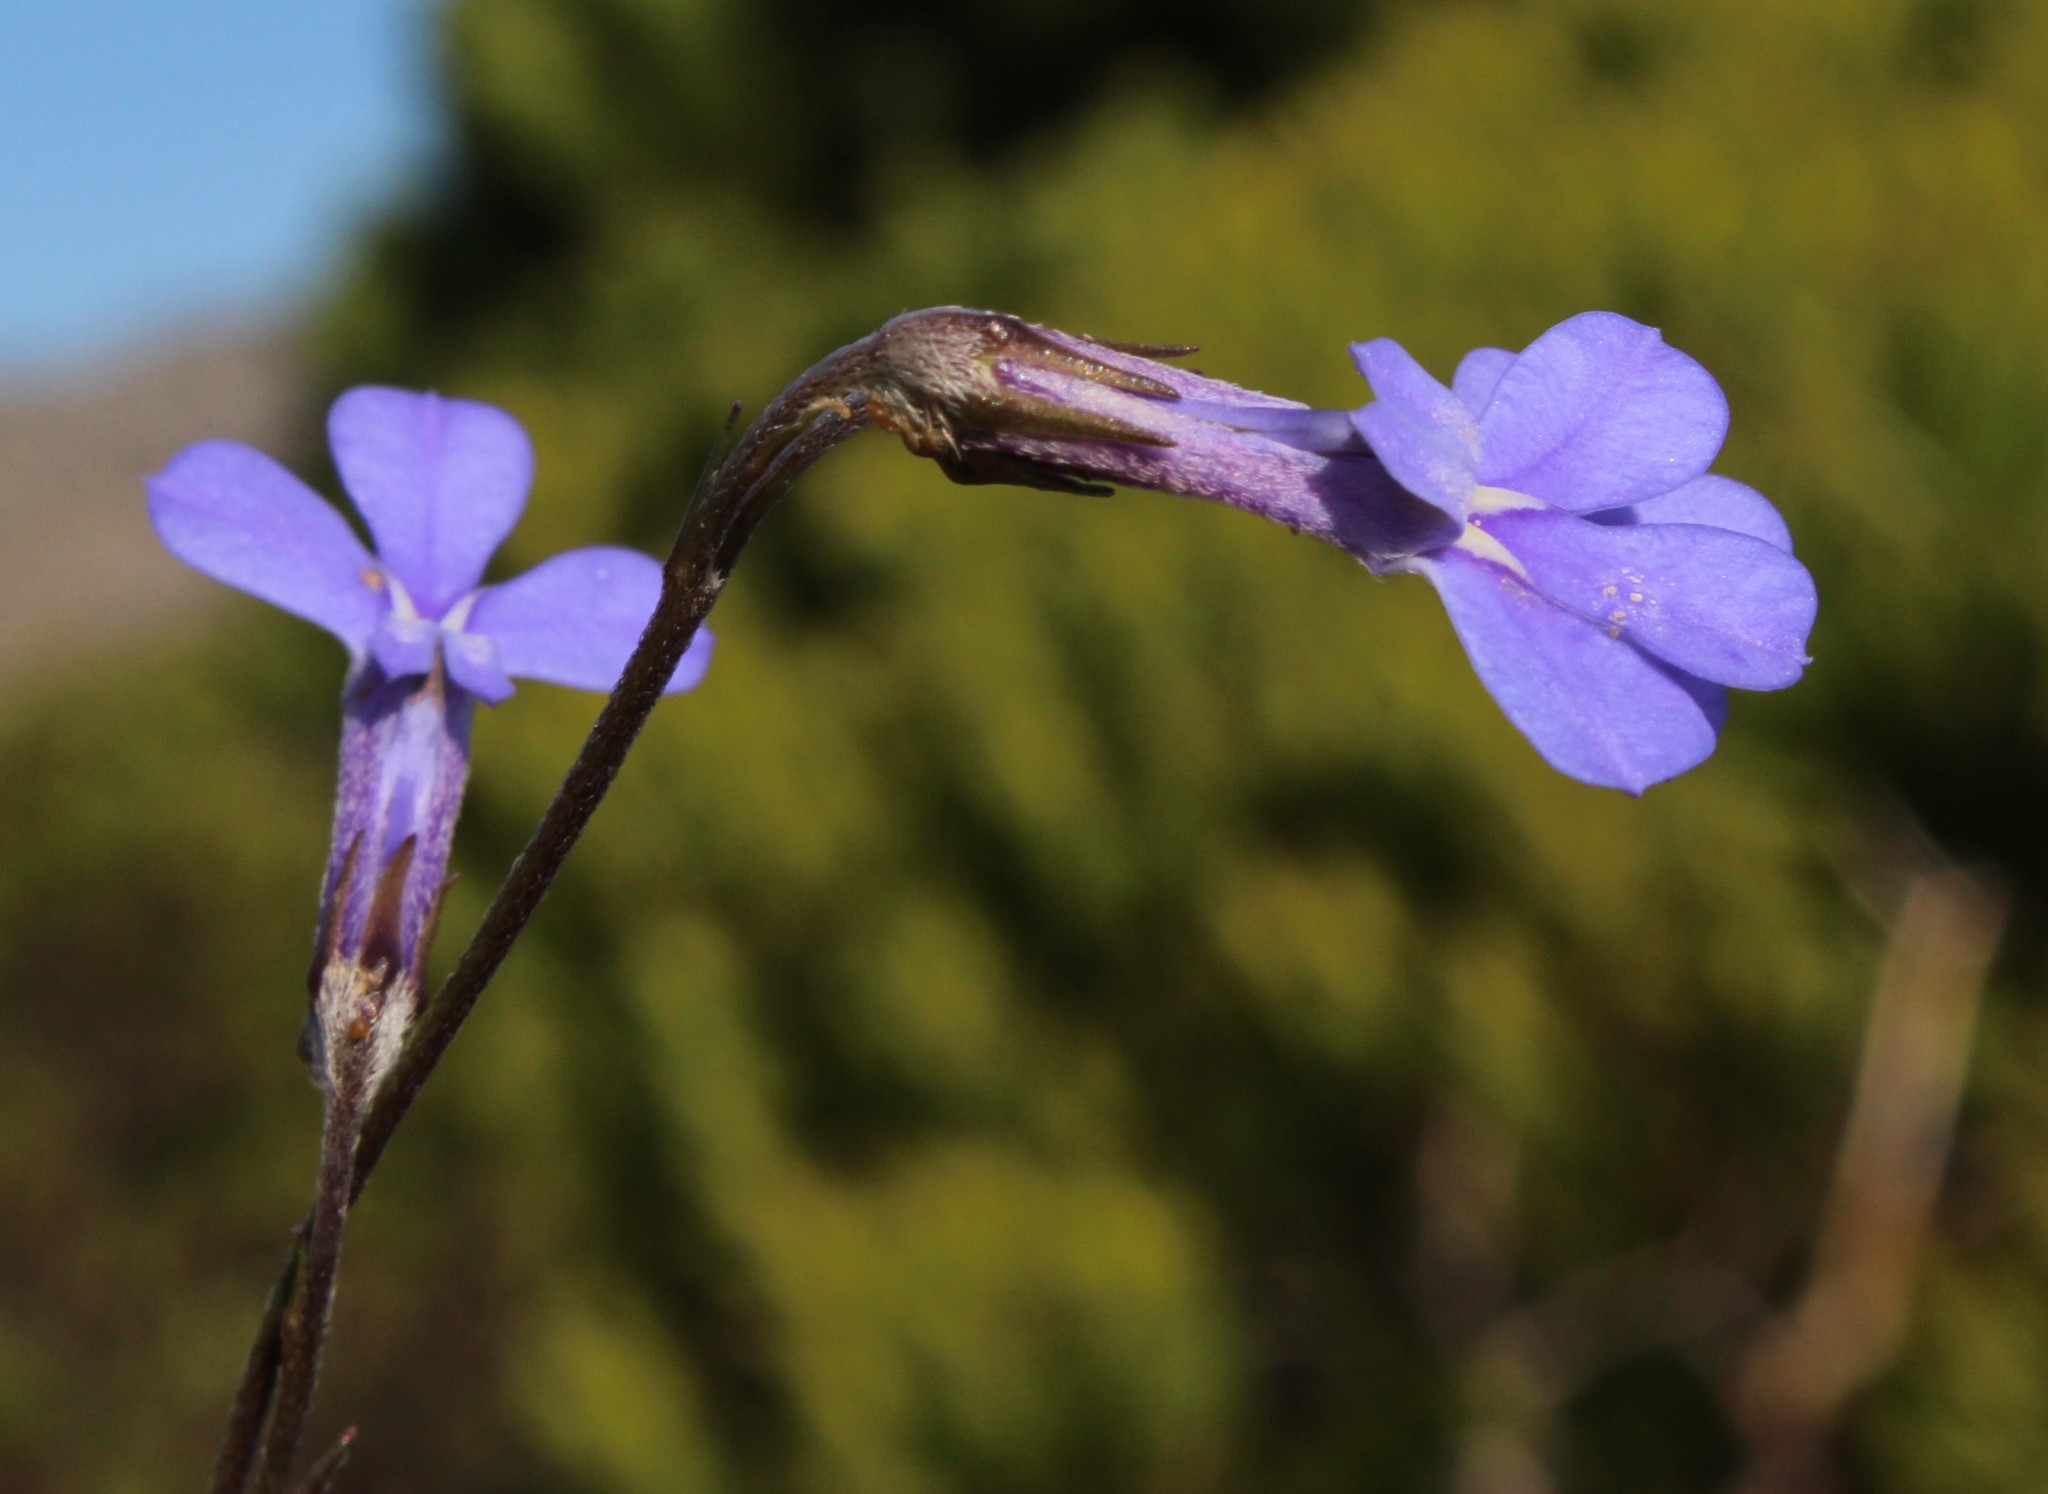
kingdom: Plantae
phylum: Tracheophyta
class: Magnoliopsida
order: Asterales
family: Campanulaceae
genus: Lobelia
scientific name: Lobelia pinifolia
